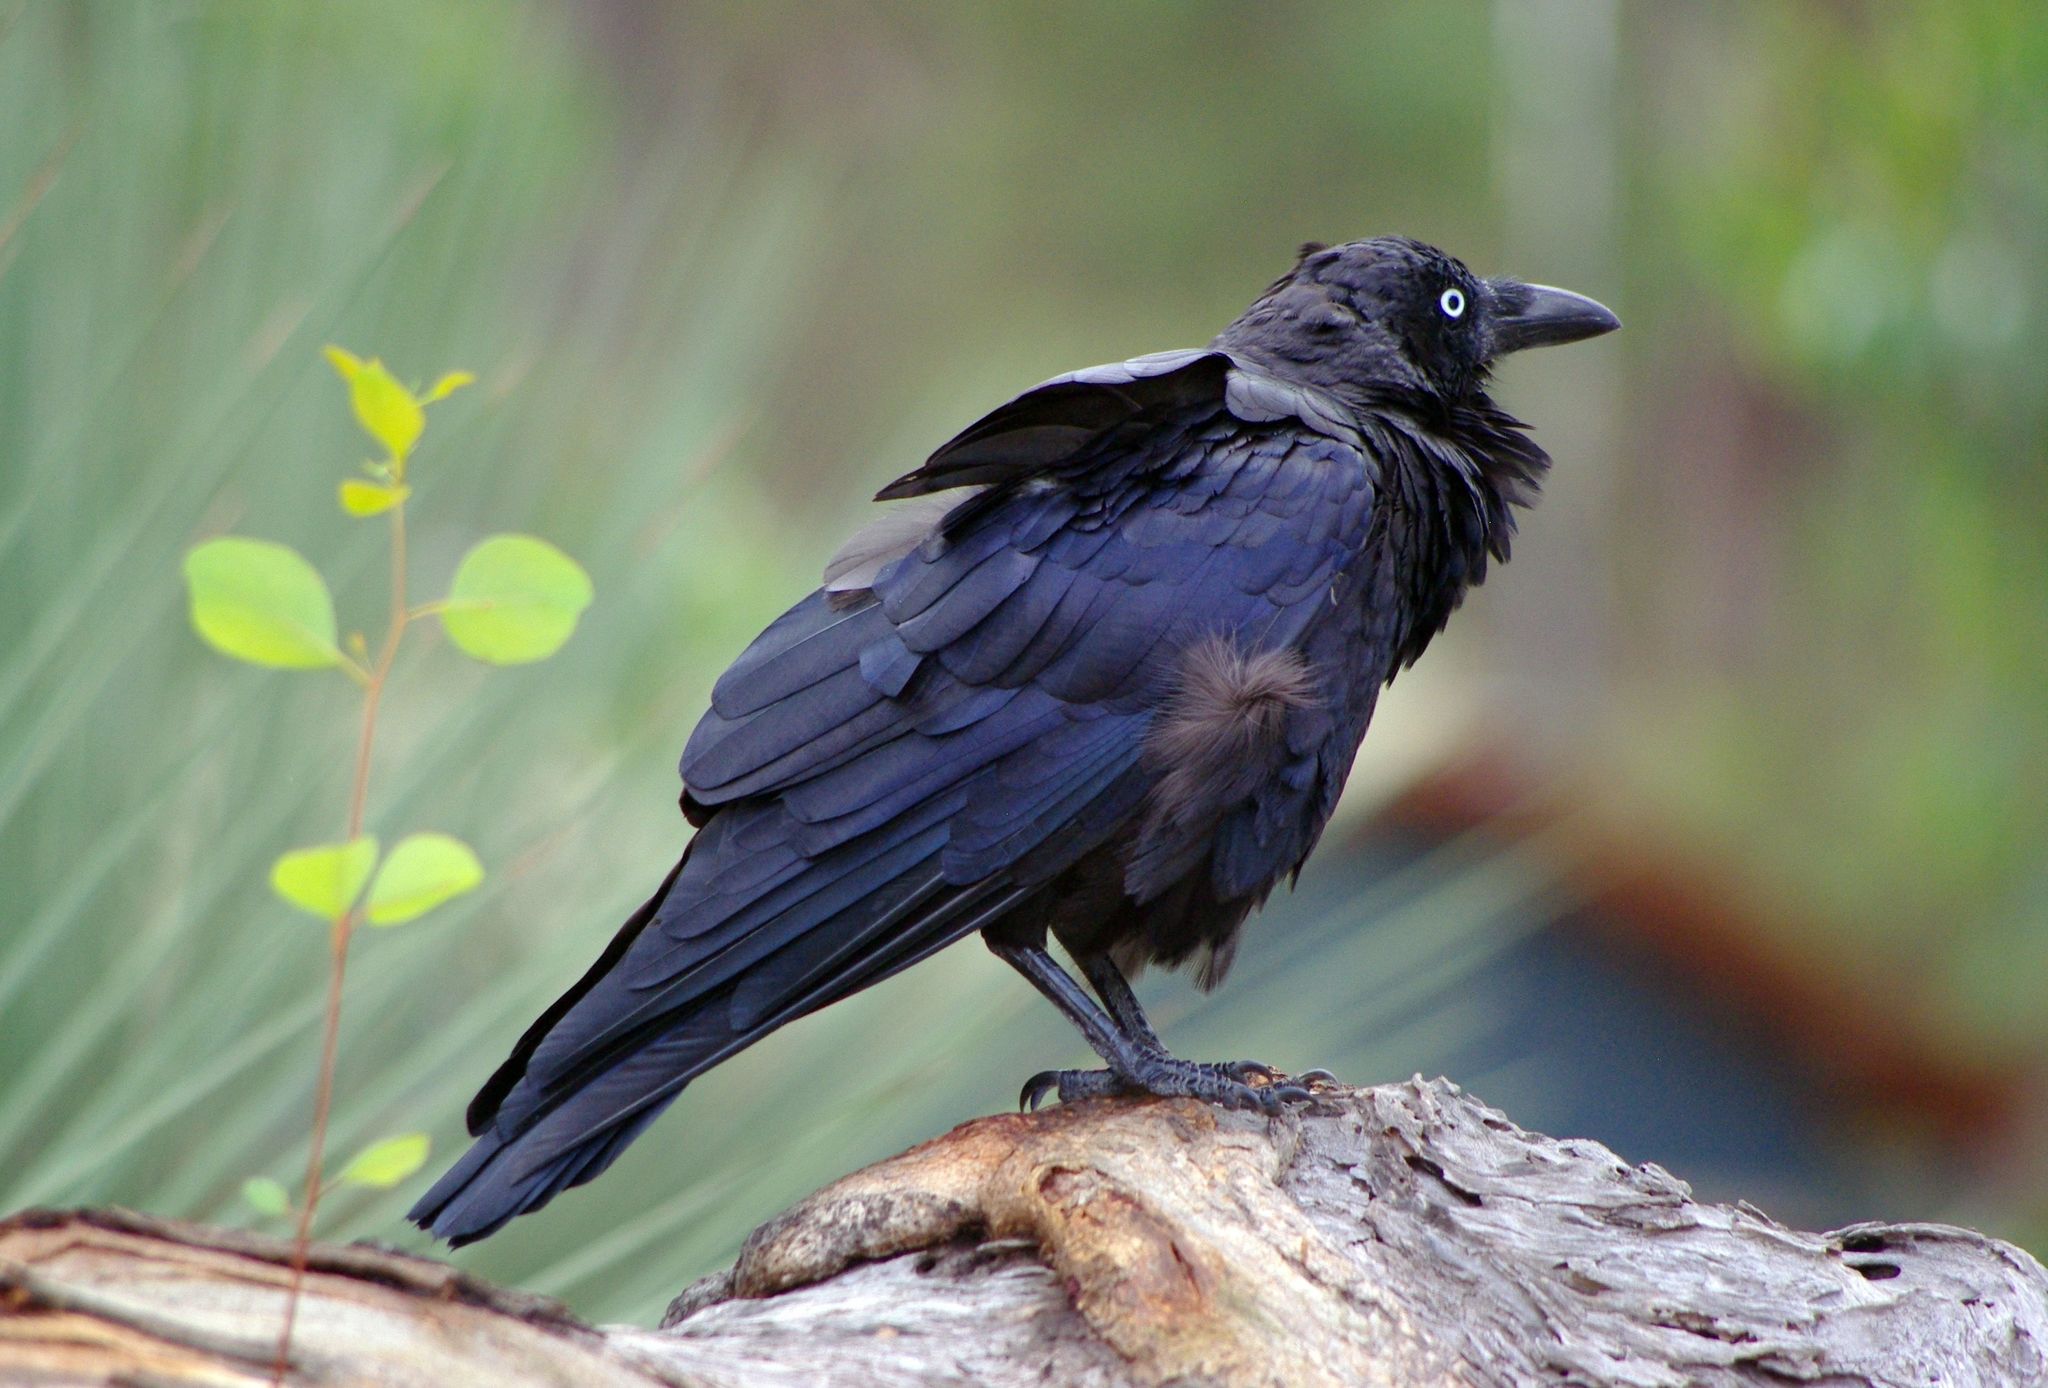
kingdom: Animalia
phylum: Chordata
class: Aves
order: Passeriformes
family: Corvidae
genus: Corvus
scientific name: Corvus coronoides
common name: Australian raven
